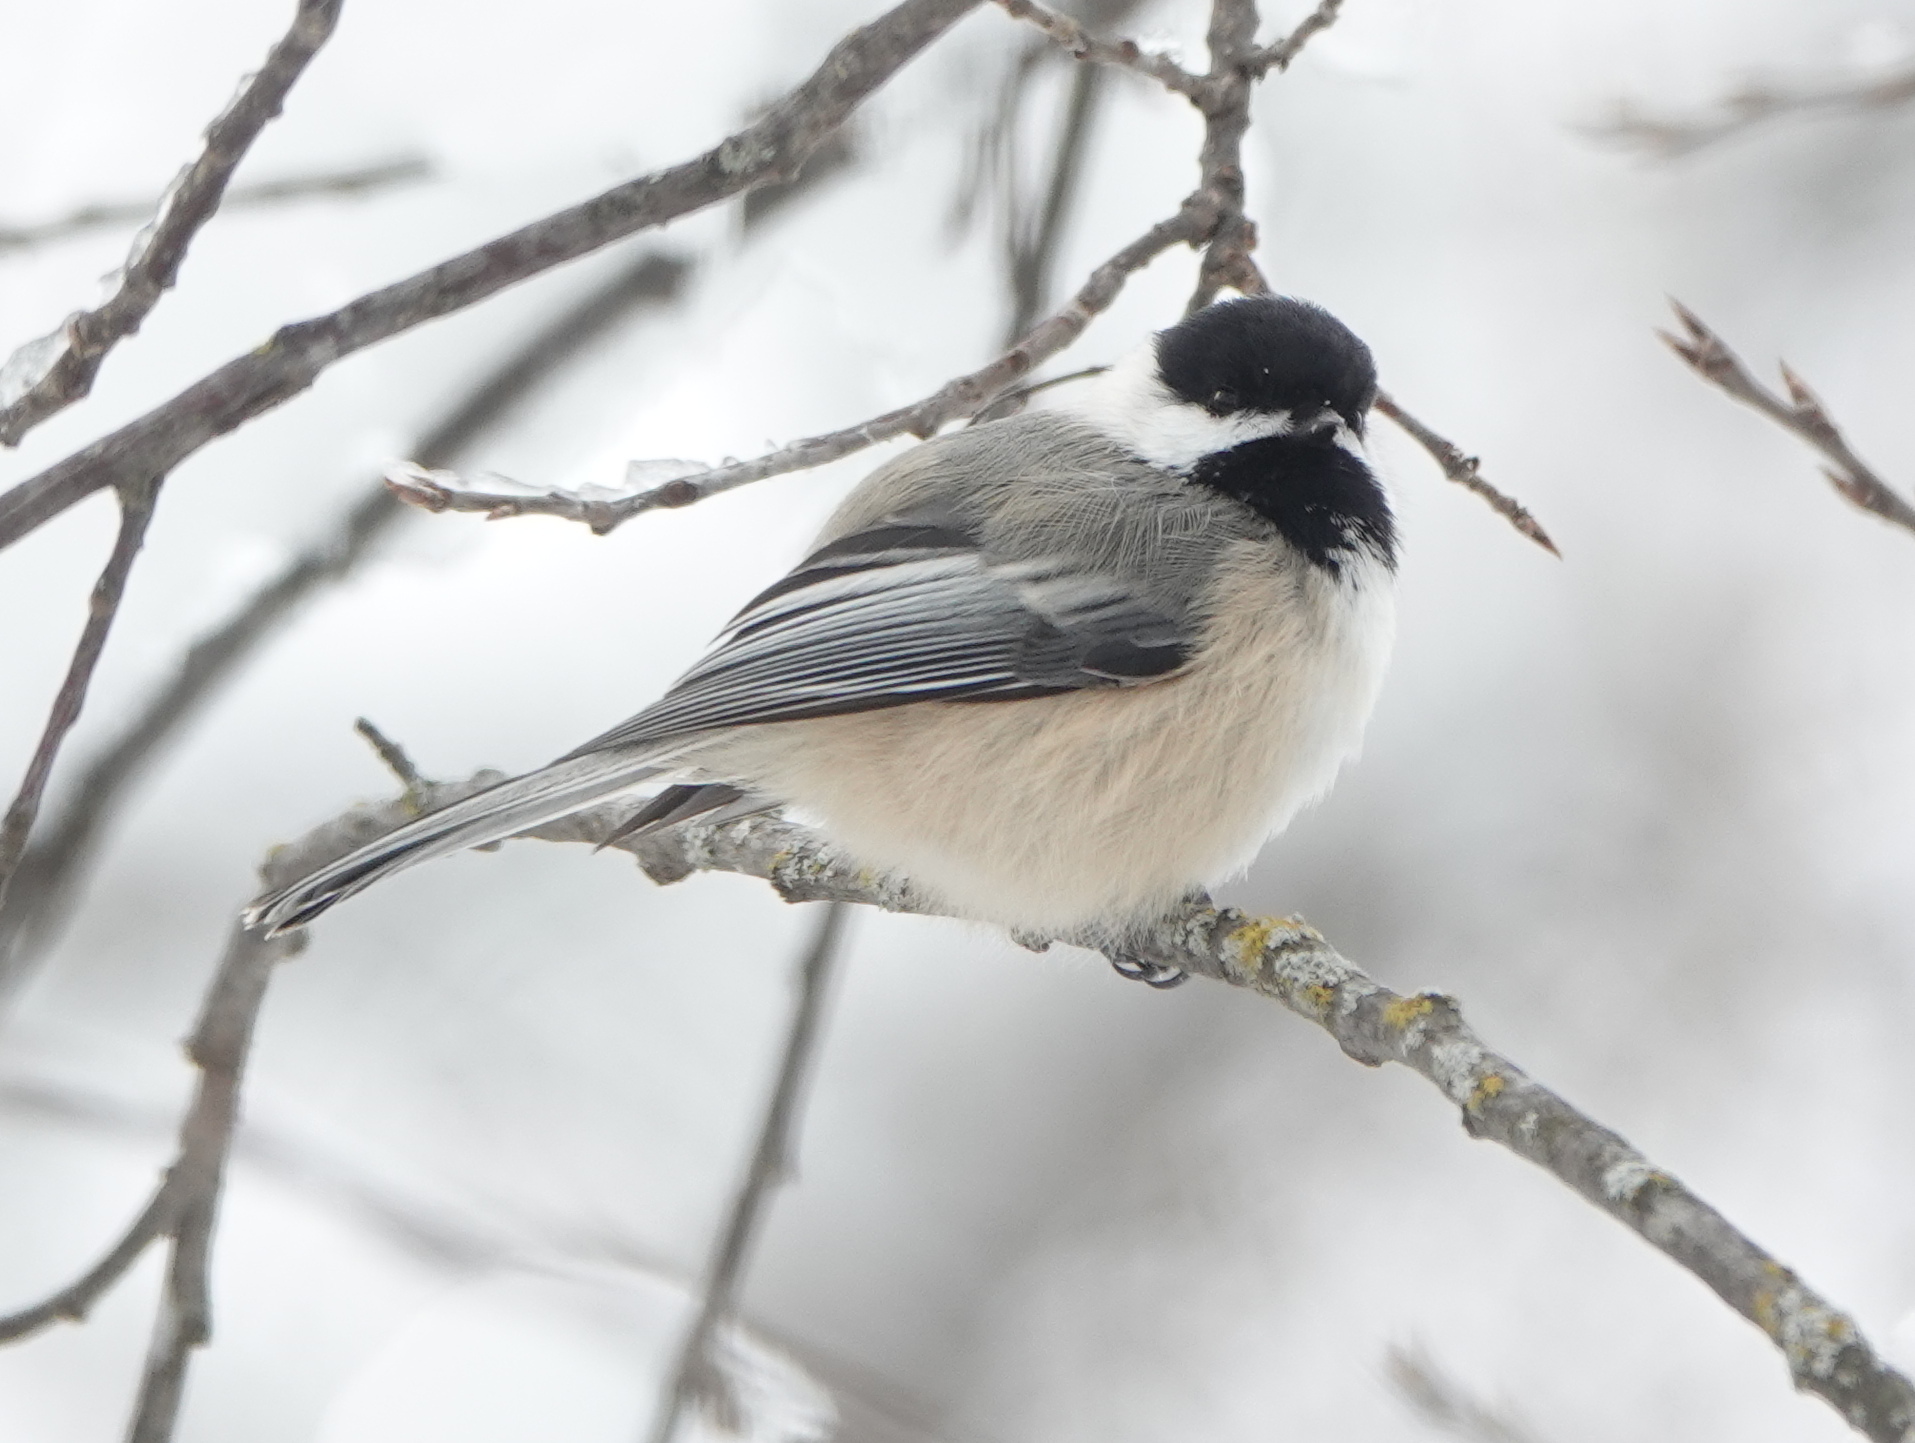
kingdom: Animalia
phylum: Chordata
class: Aves
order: Passeriformes
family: Paridae
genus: Poecile
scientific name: Poecile atricapillus
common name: Black-capped chickadee
